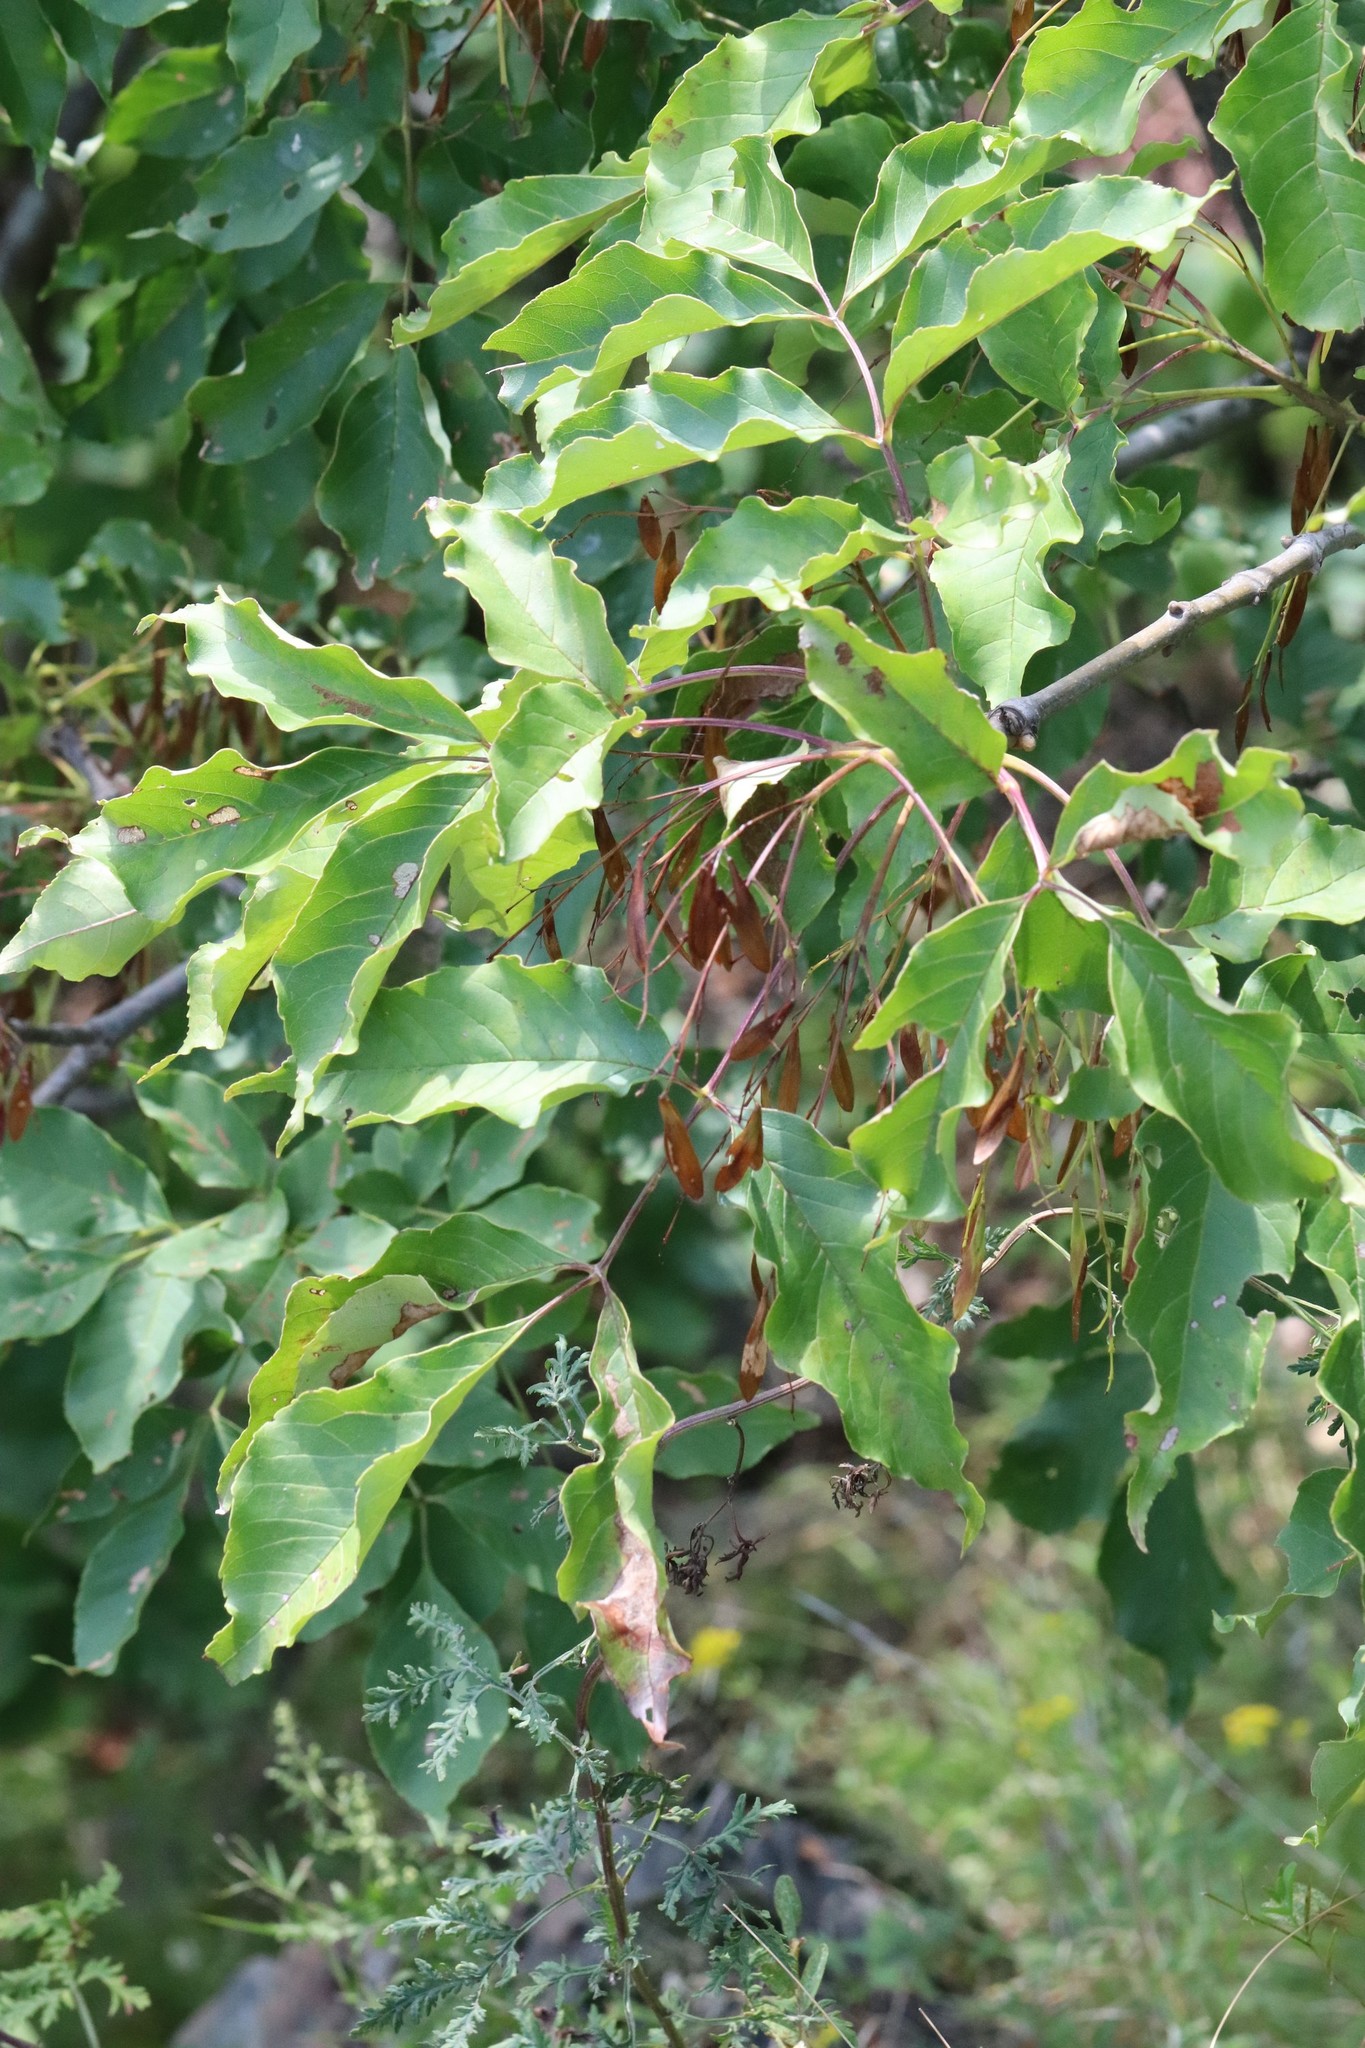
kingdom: Plantae
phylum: Tracheophyta
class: Magnoliopsida
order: Lamiales
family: Oleaceae
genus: Fraxinus
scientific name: Fraxinus chinensis
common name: Chinese ash
